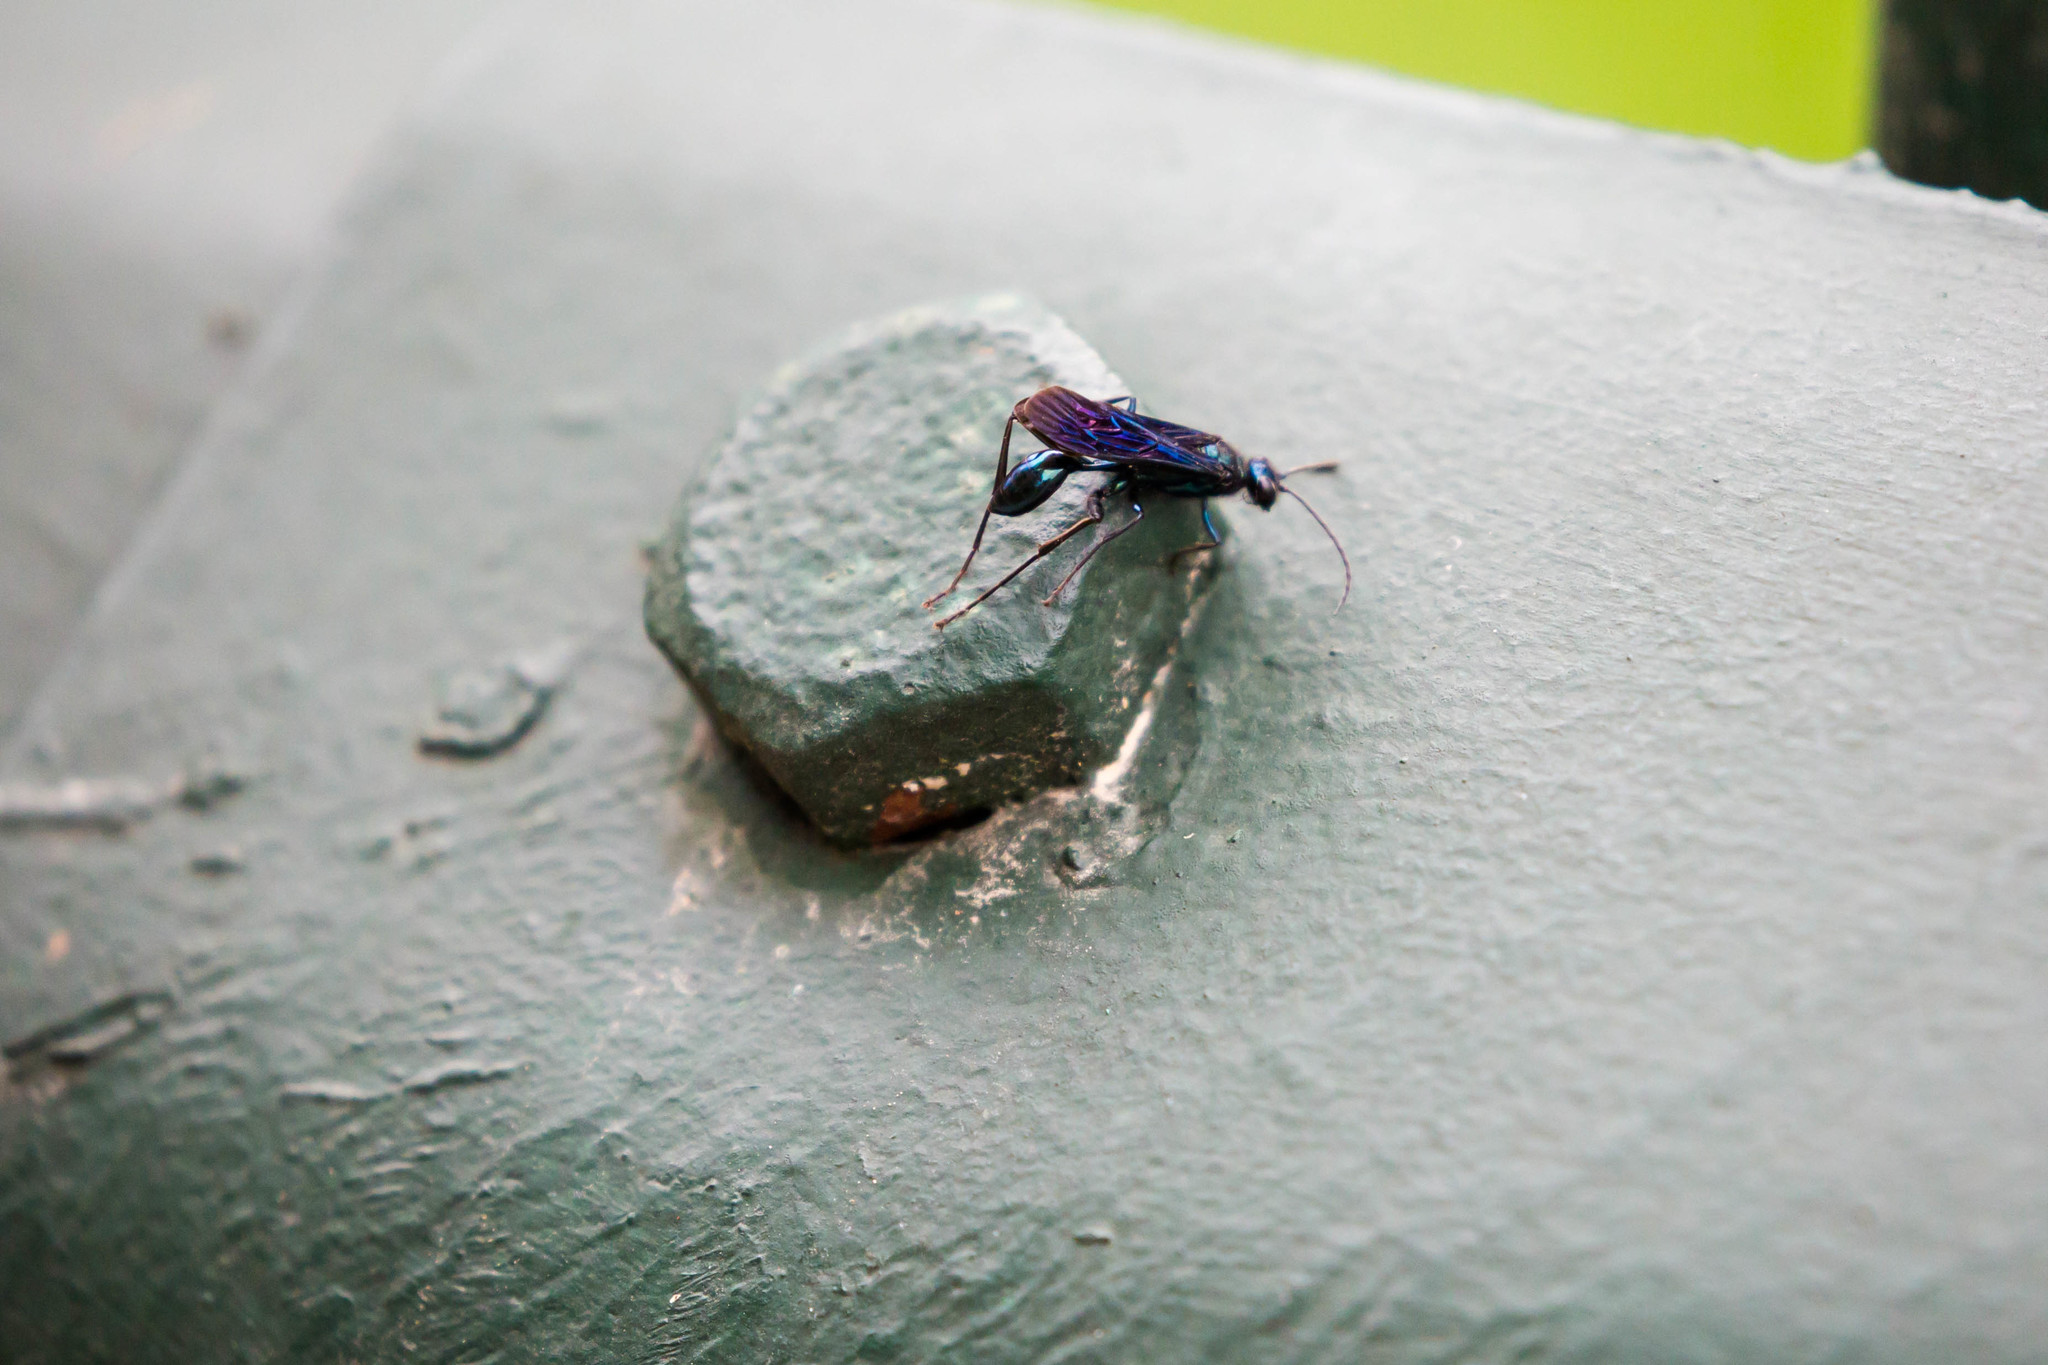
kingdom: Animalia
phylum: Arthropoda
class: Insecta
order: Hymenoptera
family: Sphecidae
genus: Chalybion
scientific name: Chalybion californicum
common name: Mud dauber
